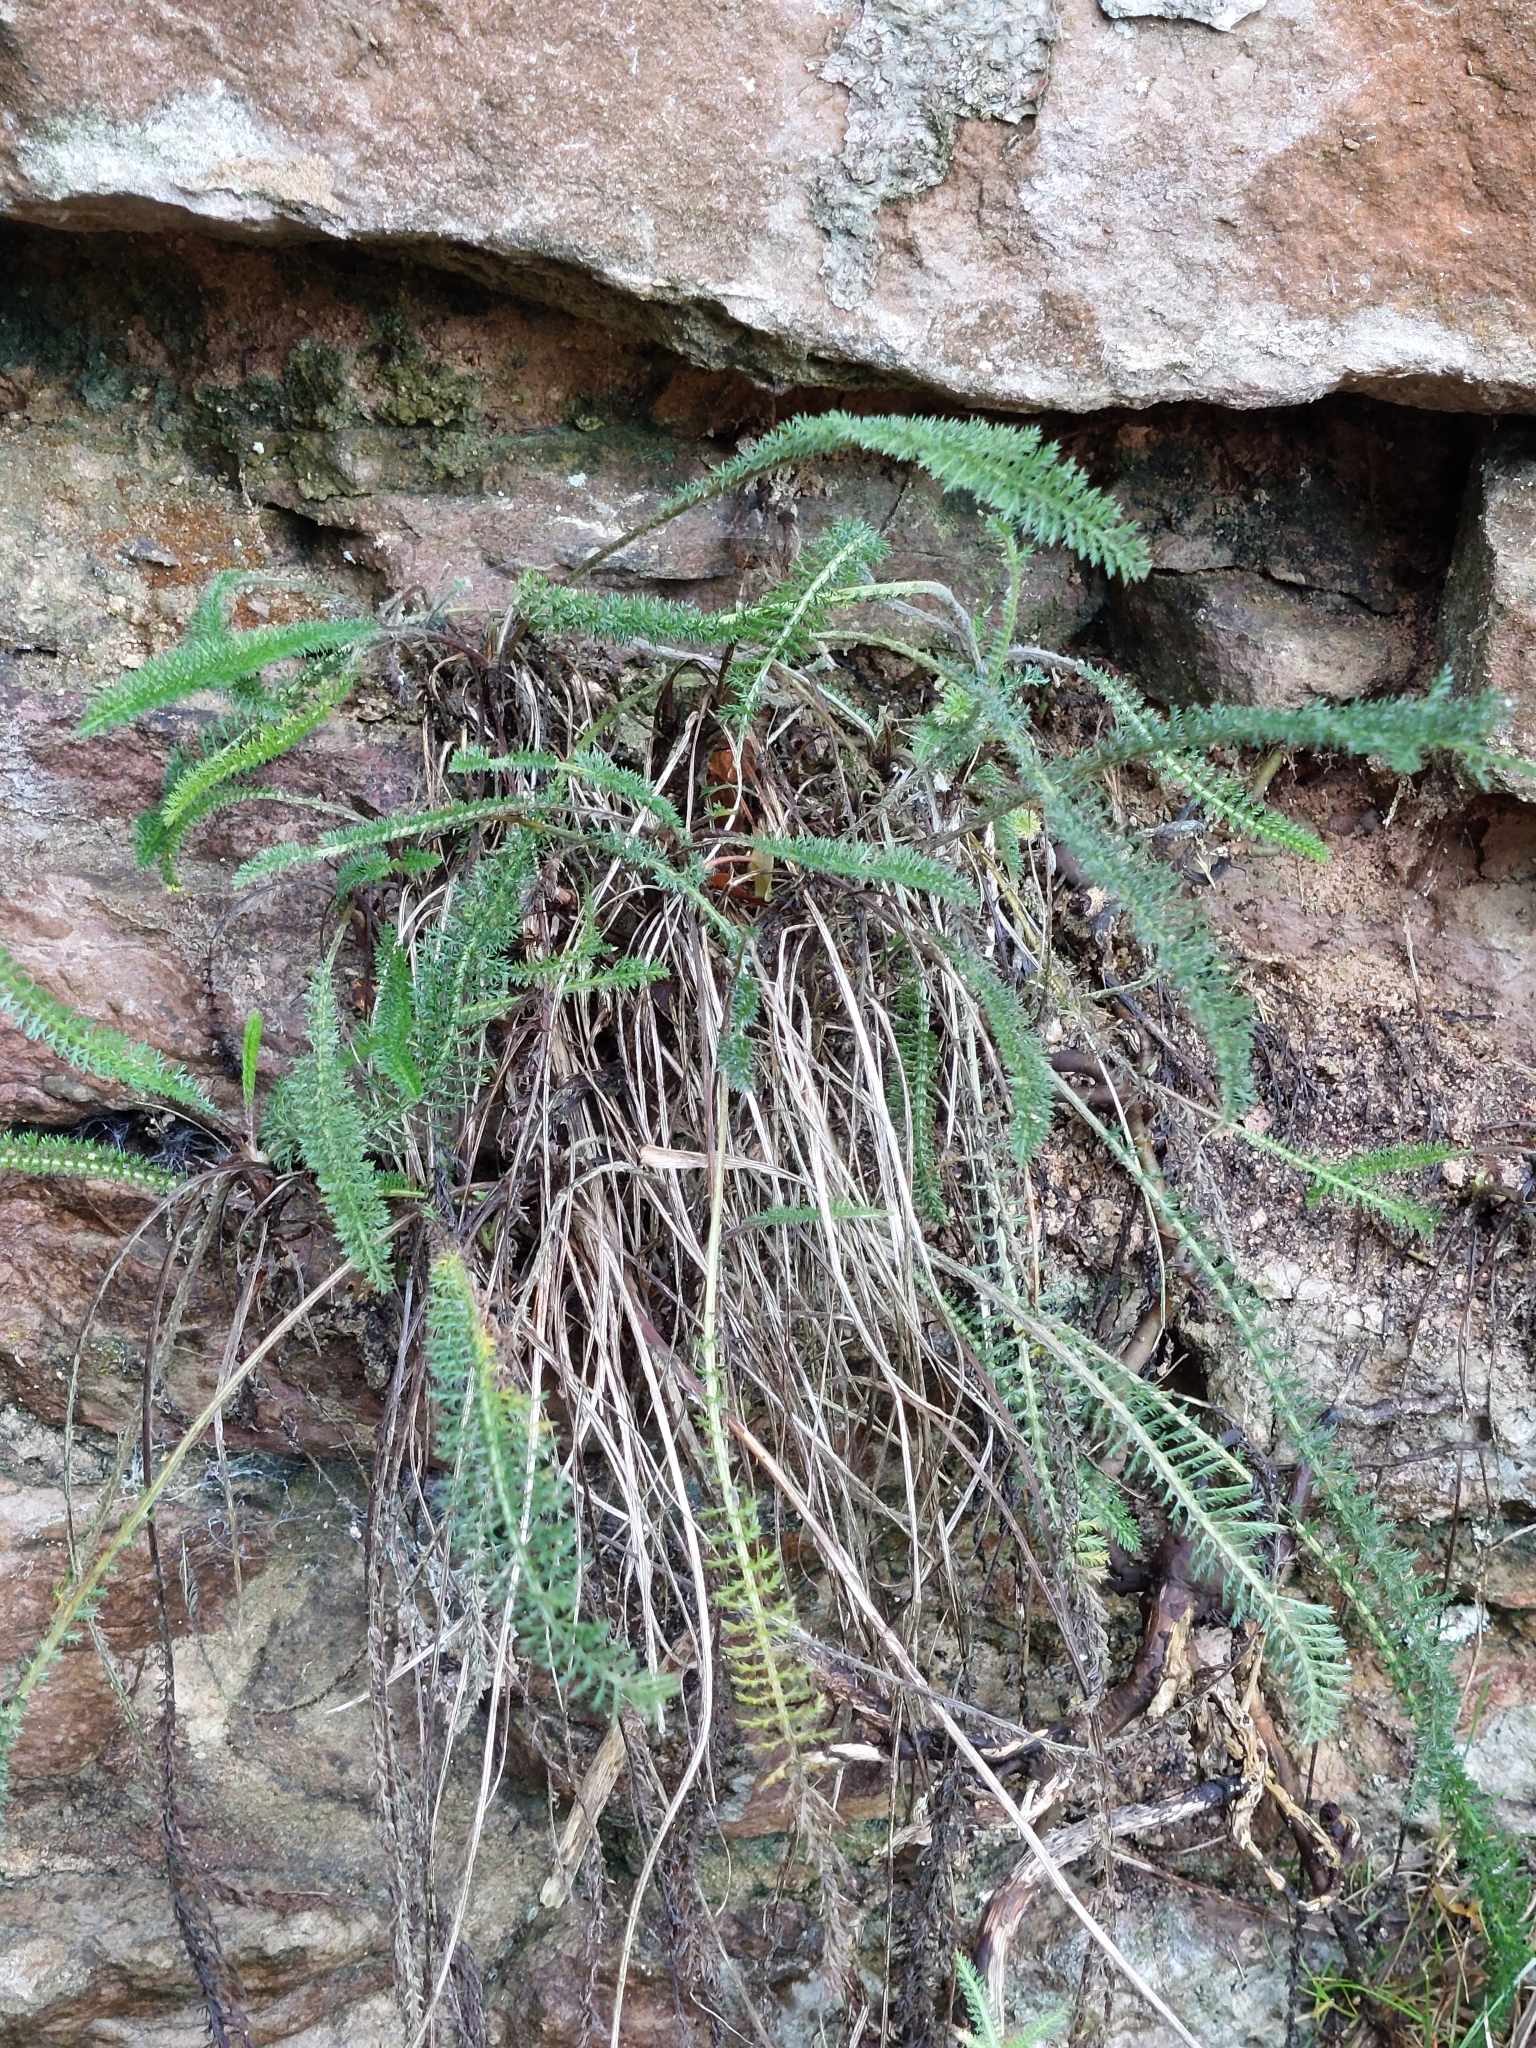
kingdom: Plantae
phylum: Tracheophyta
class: Magnoliopsida
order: Asterales
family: Asteraceae
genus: Achillea
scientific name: Achillea millefolium
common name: Yarrow
